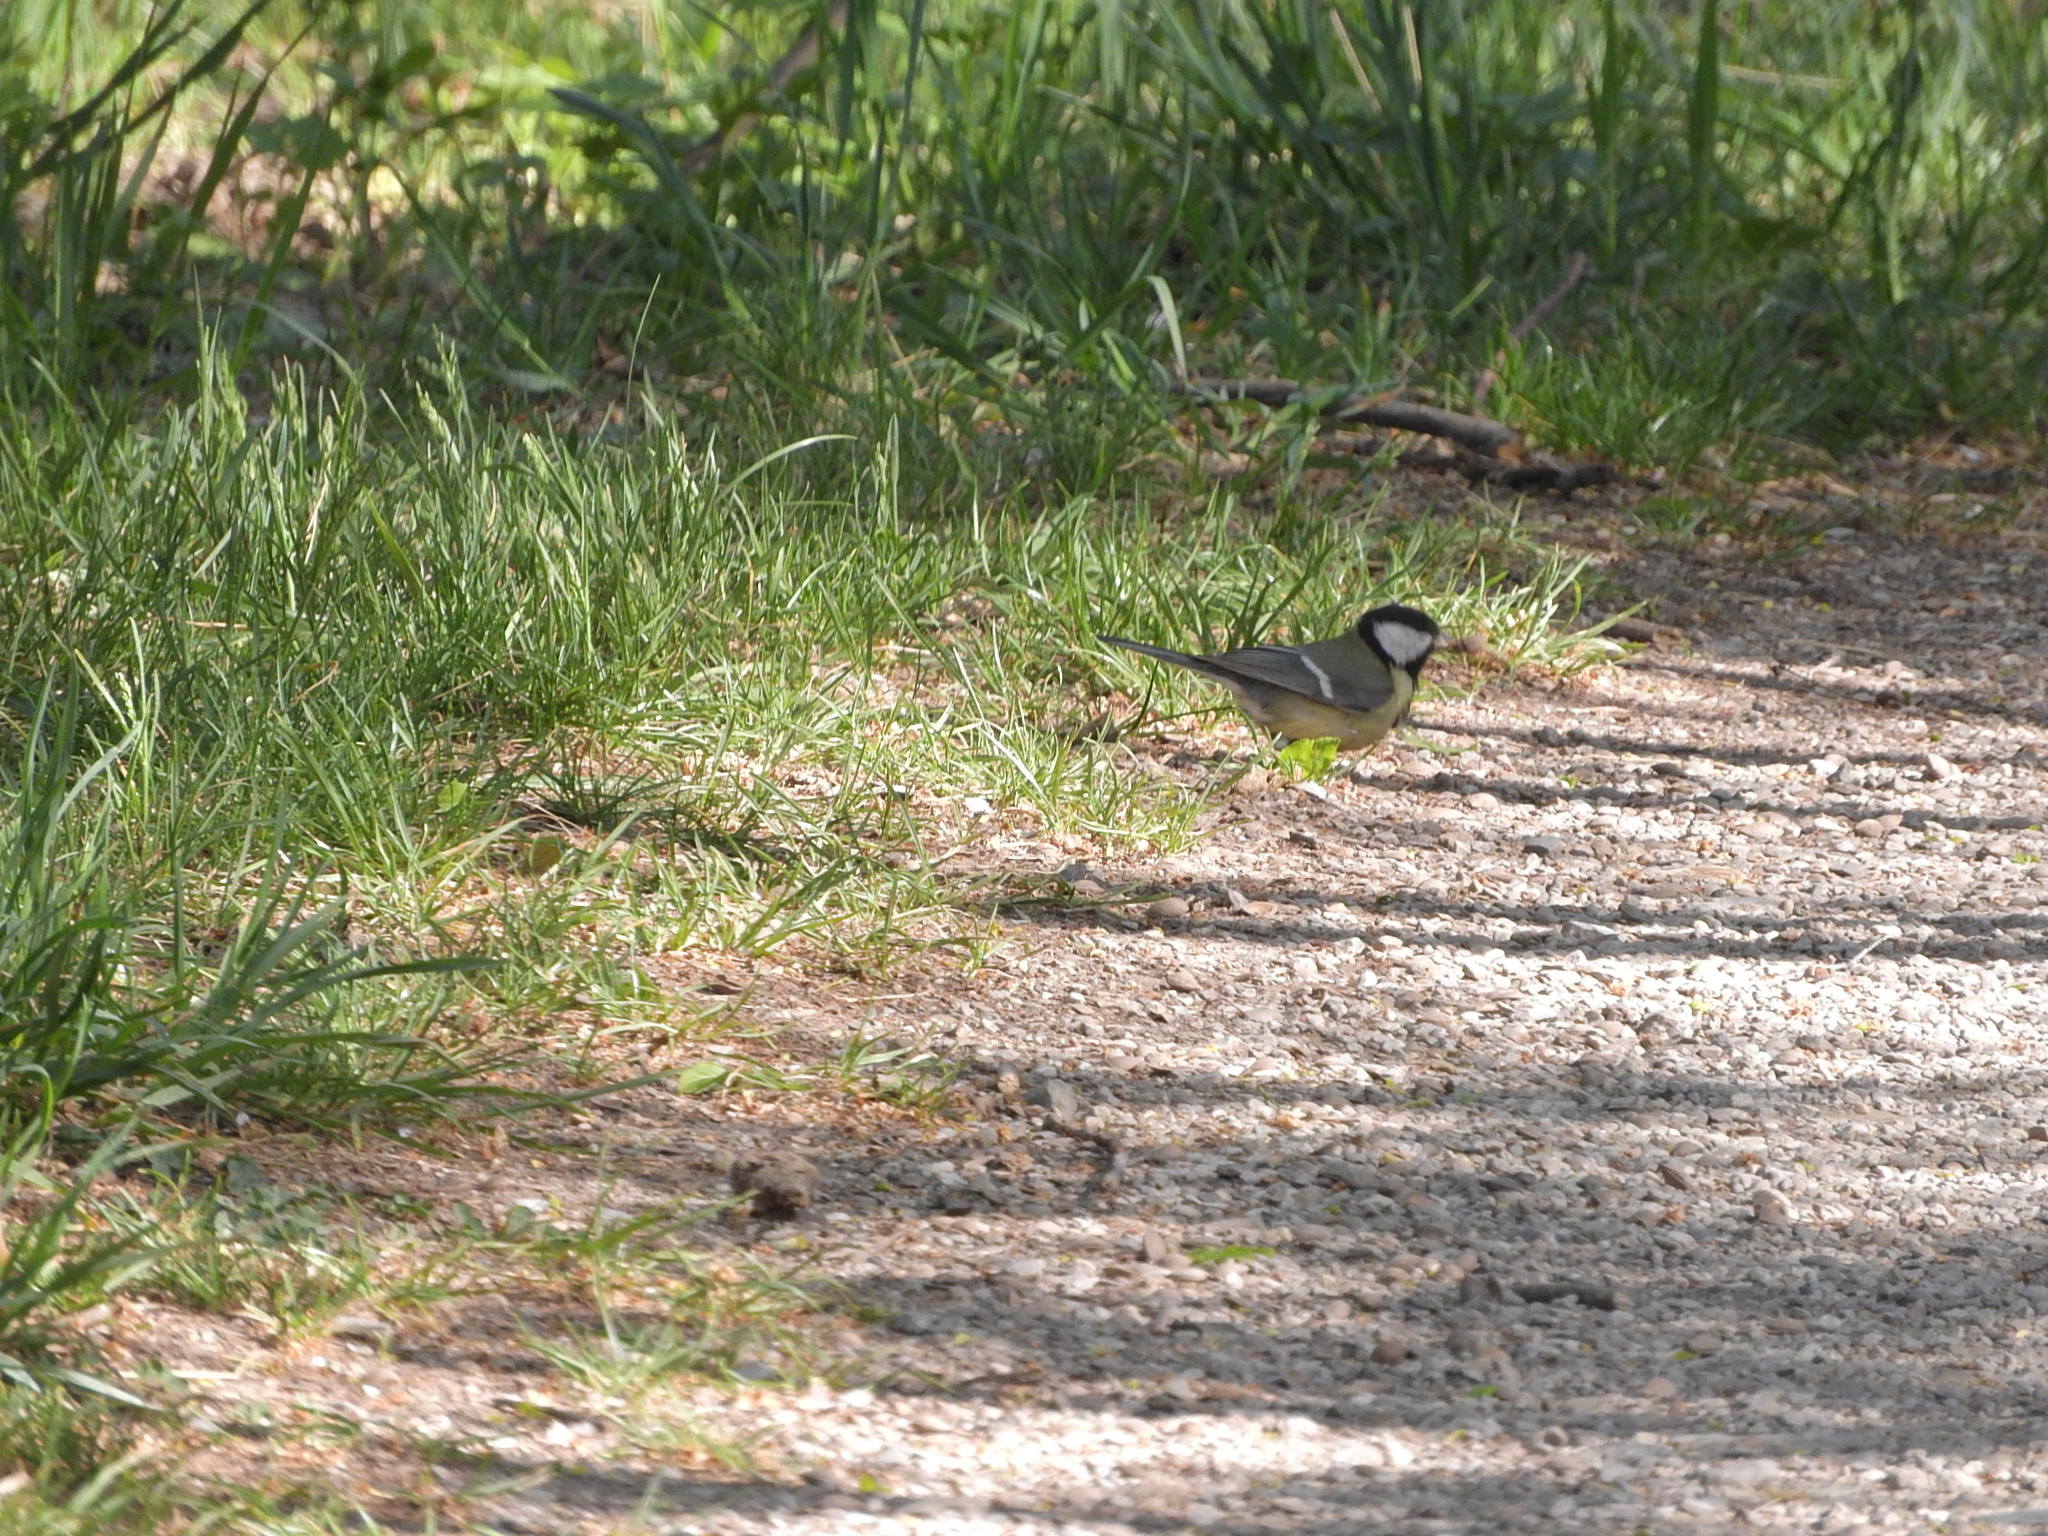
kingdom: Animalia
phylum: Chordata
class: Aves
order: Passeriformes
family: Paridae
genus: Parus
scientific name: Parus major
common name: Great tit
